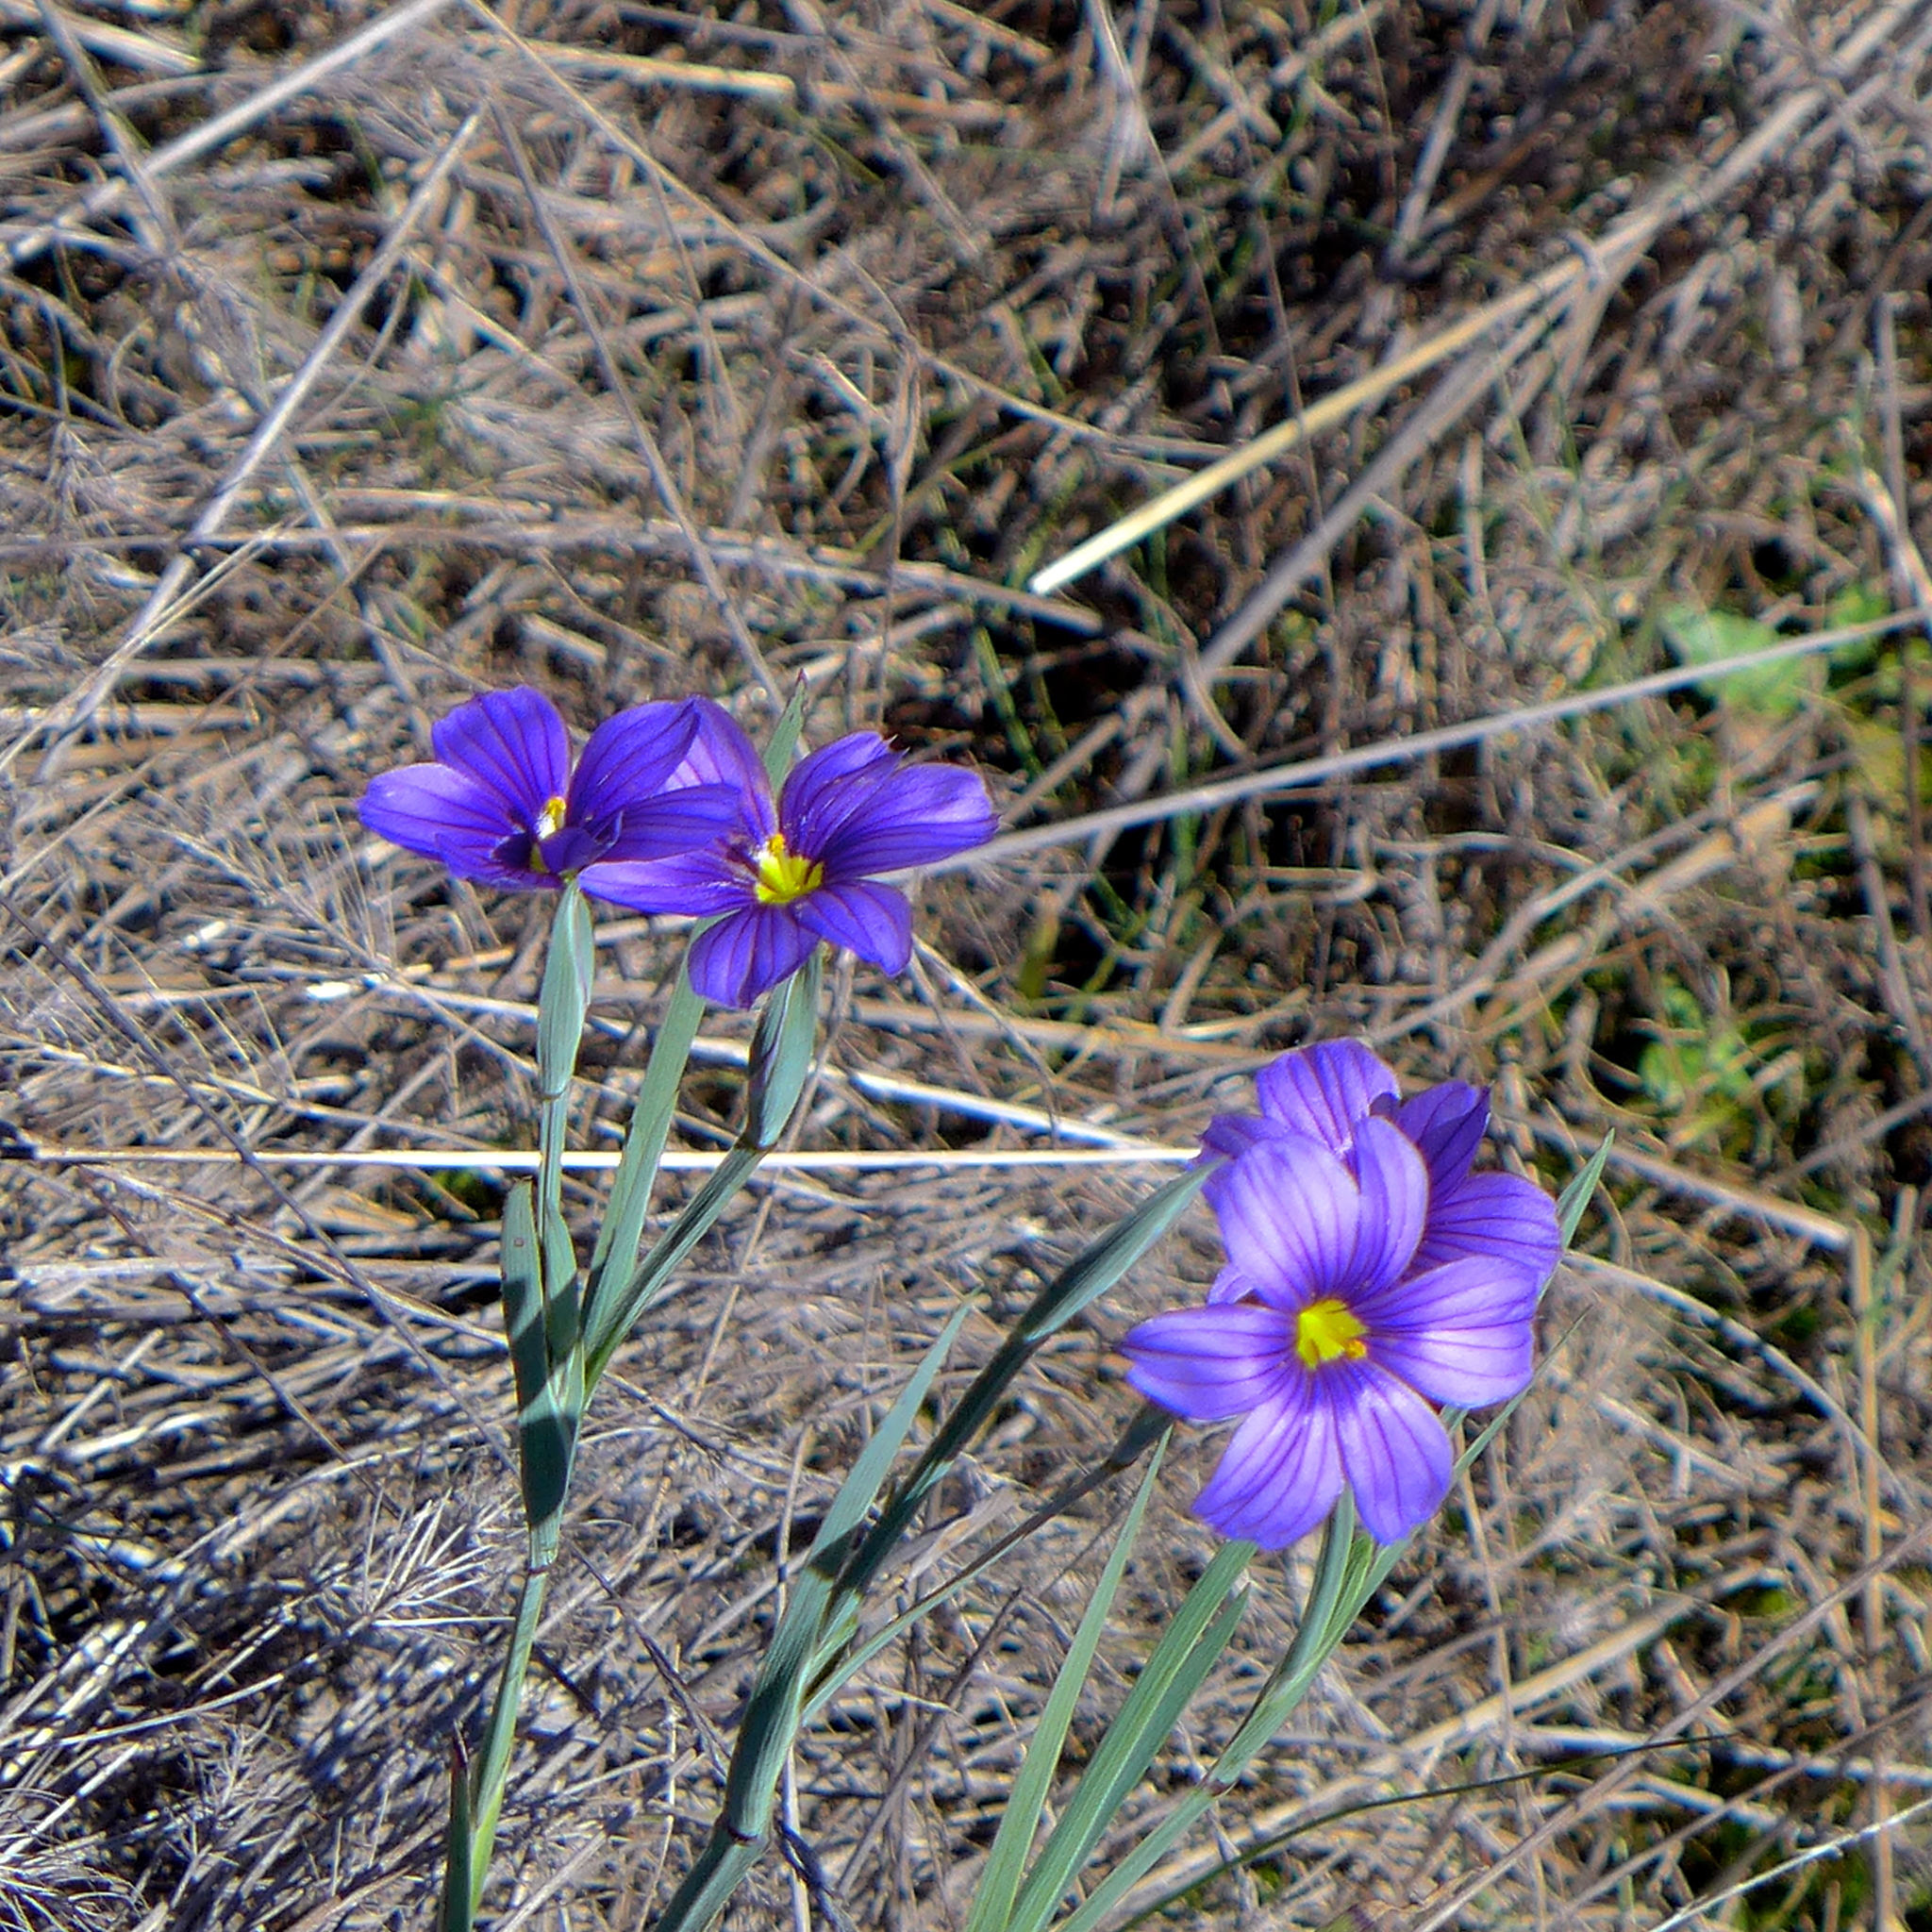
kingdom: Plantae
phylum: Tracheophyta
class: Liliopsida
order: Asparagales
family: Iridaceae
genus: Sisyrinchium
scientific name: Sisyrinchium bellum
